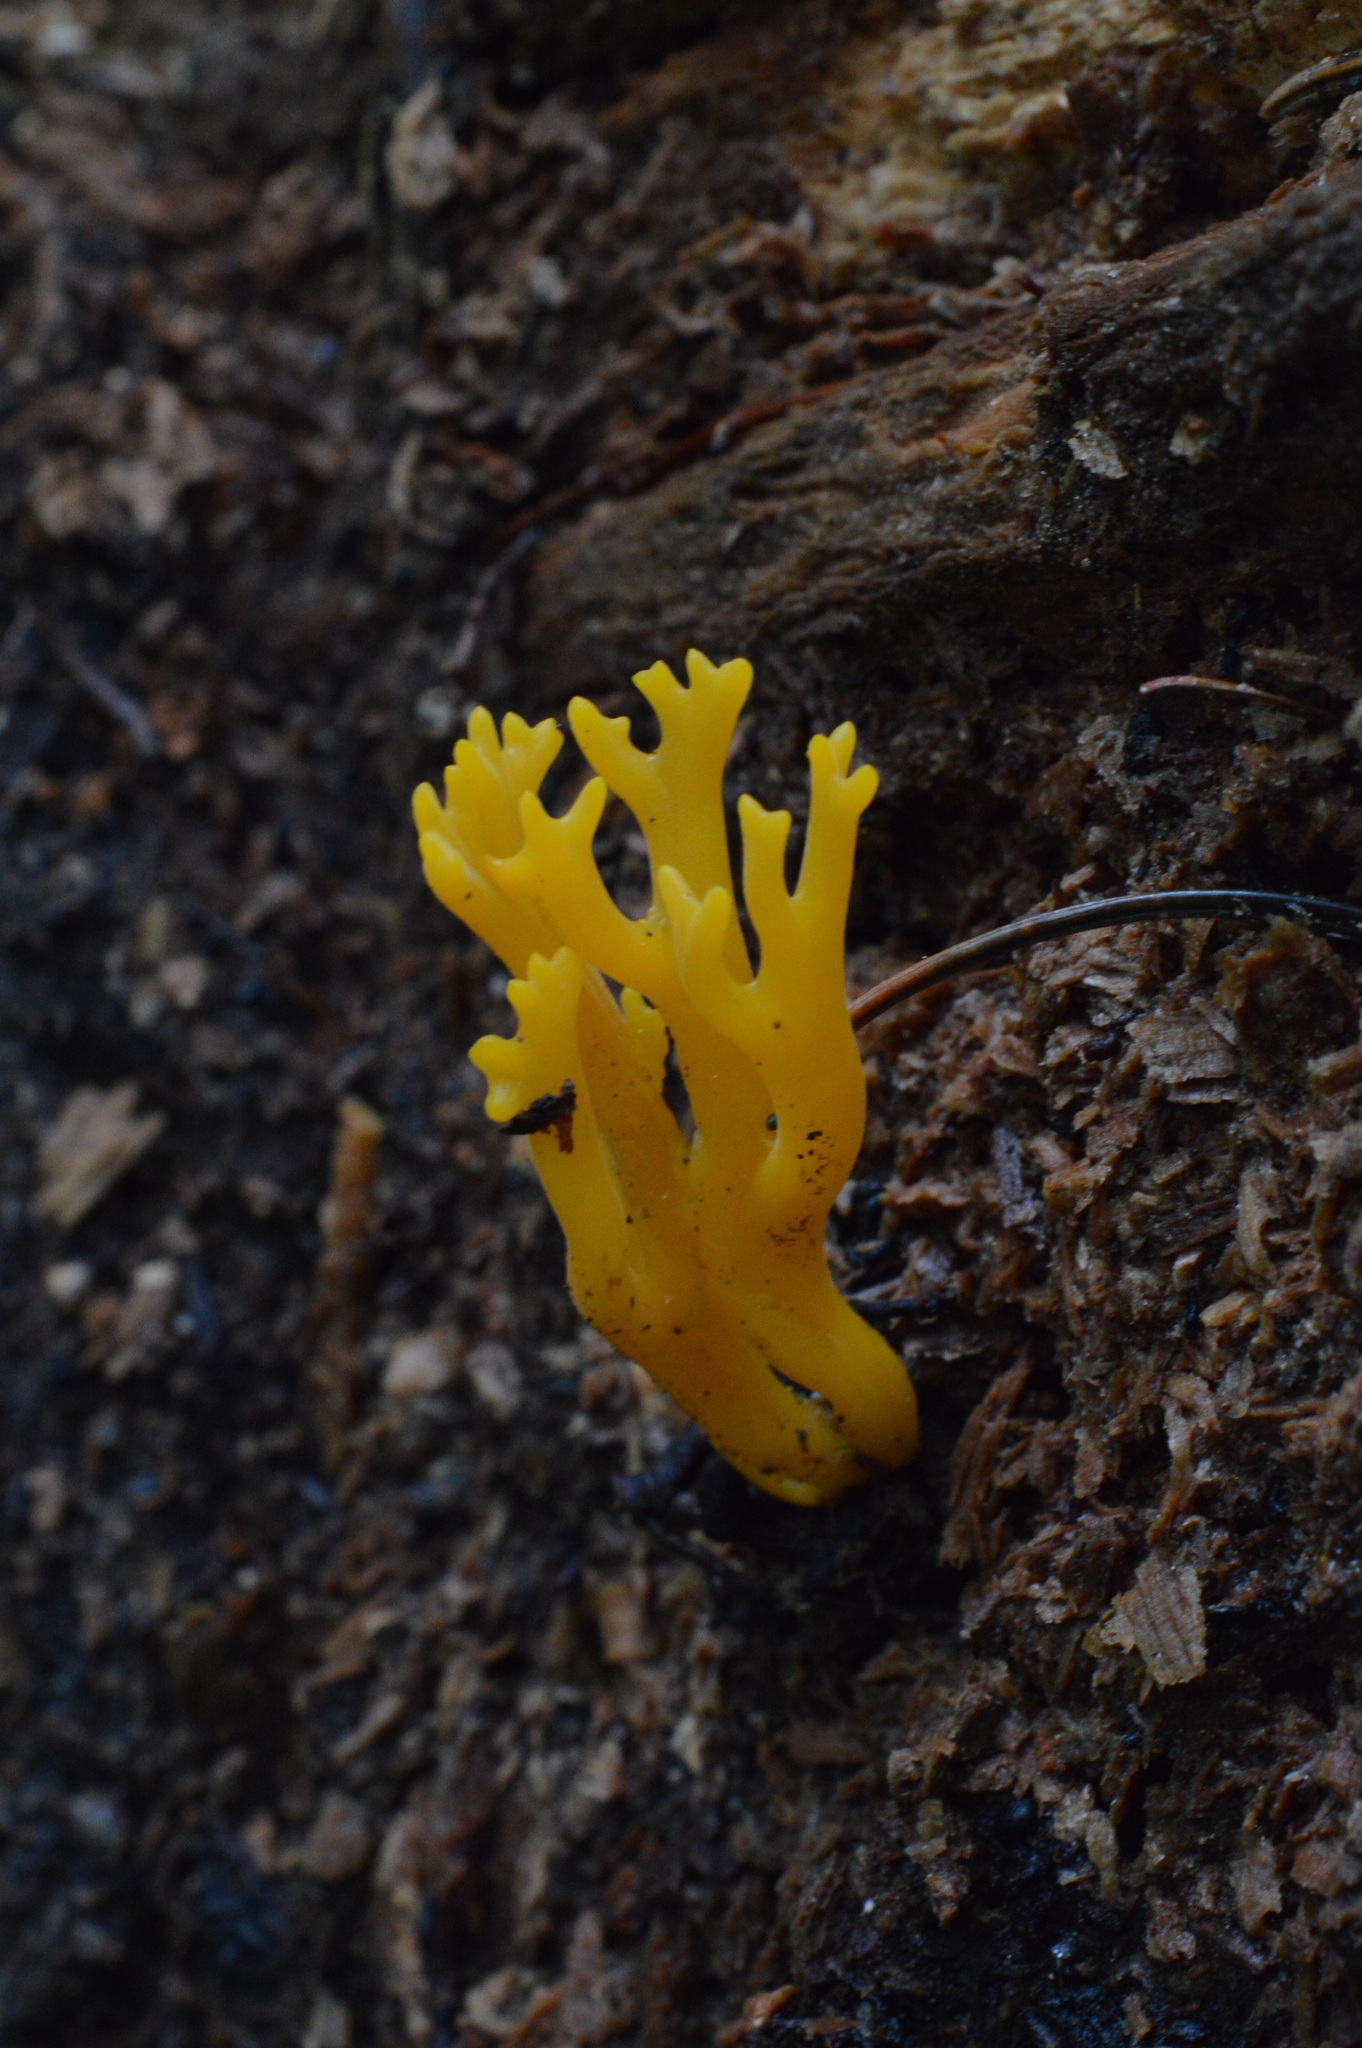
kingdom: Fungi
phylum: Basidiomycota
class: Dacrymycetes
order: Dacrymycetales
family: Dacrymycetaceae
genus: Calocera
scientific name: Calocera viscosa
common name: Yellow stagshorn
